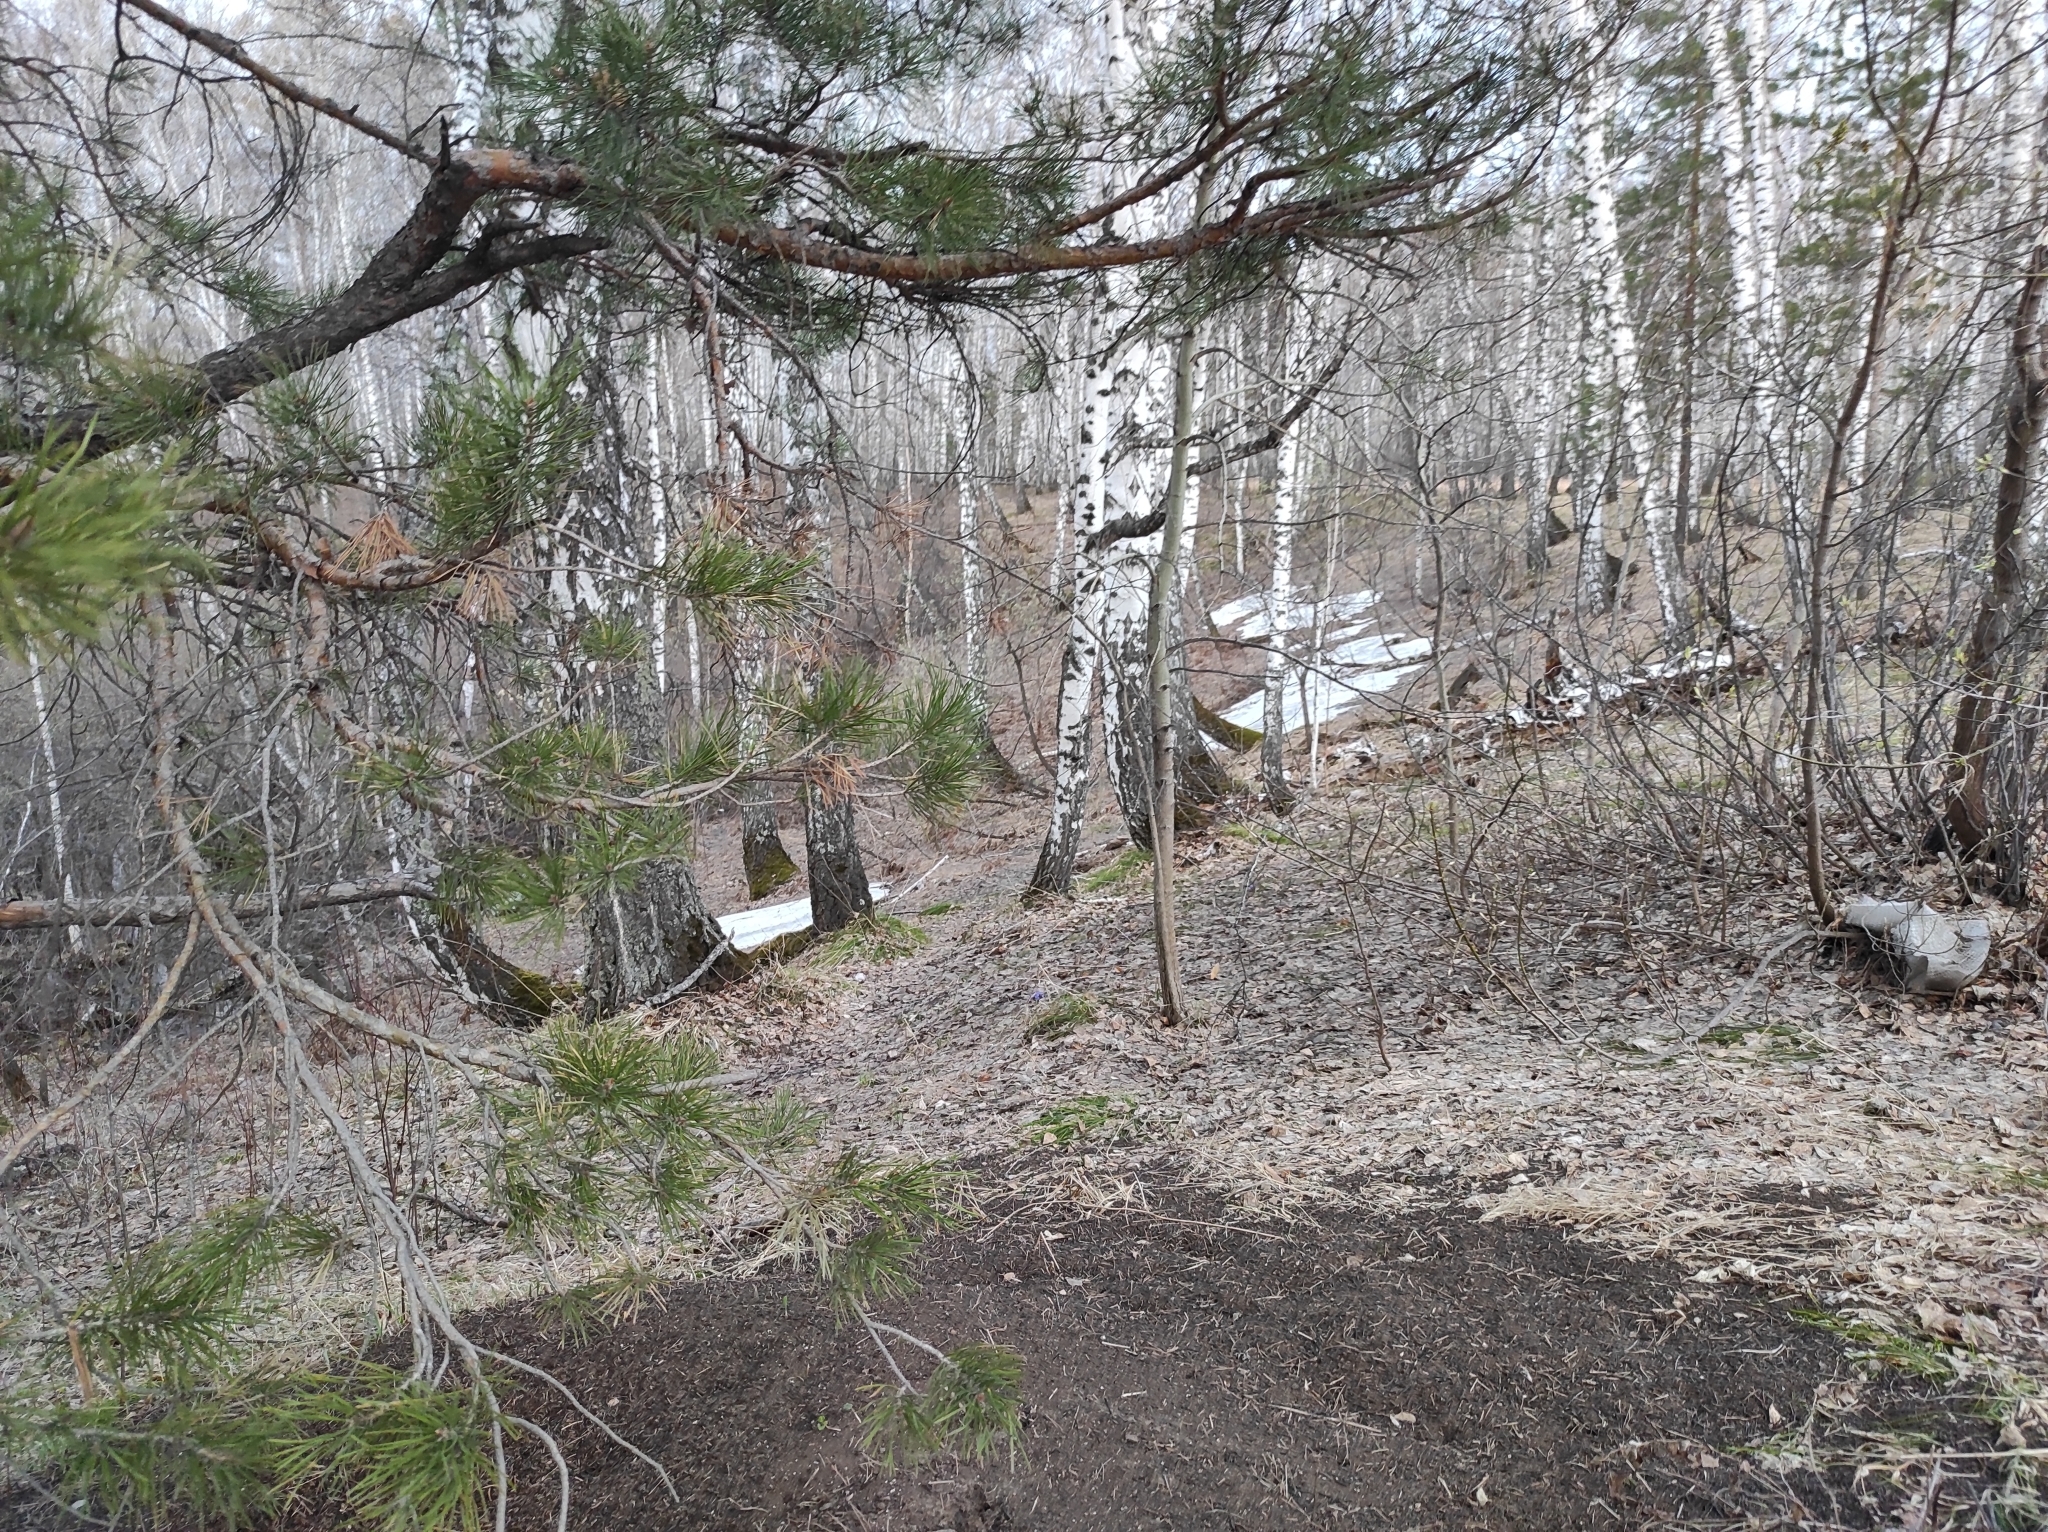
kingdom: Plantae
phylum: Tracheophyta
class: Magnoliopsida
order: Fagales
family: Betulaceae
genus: Betula
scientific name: Betula pendula
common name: Silver birch
